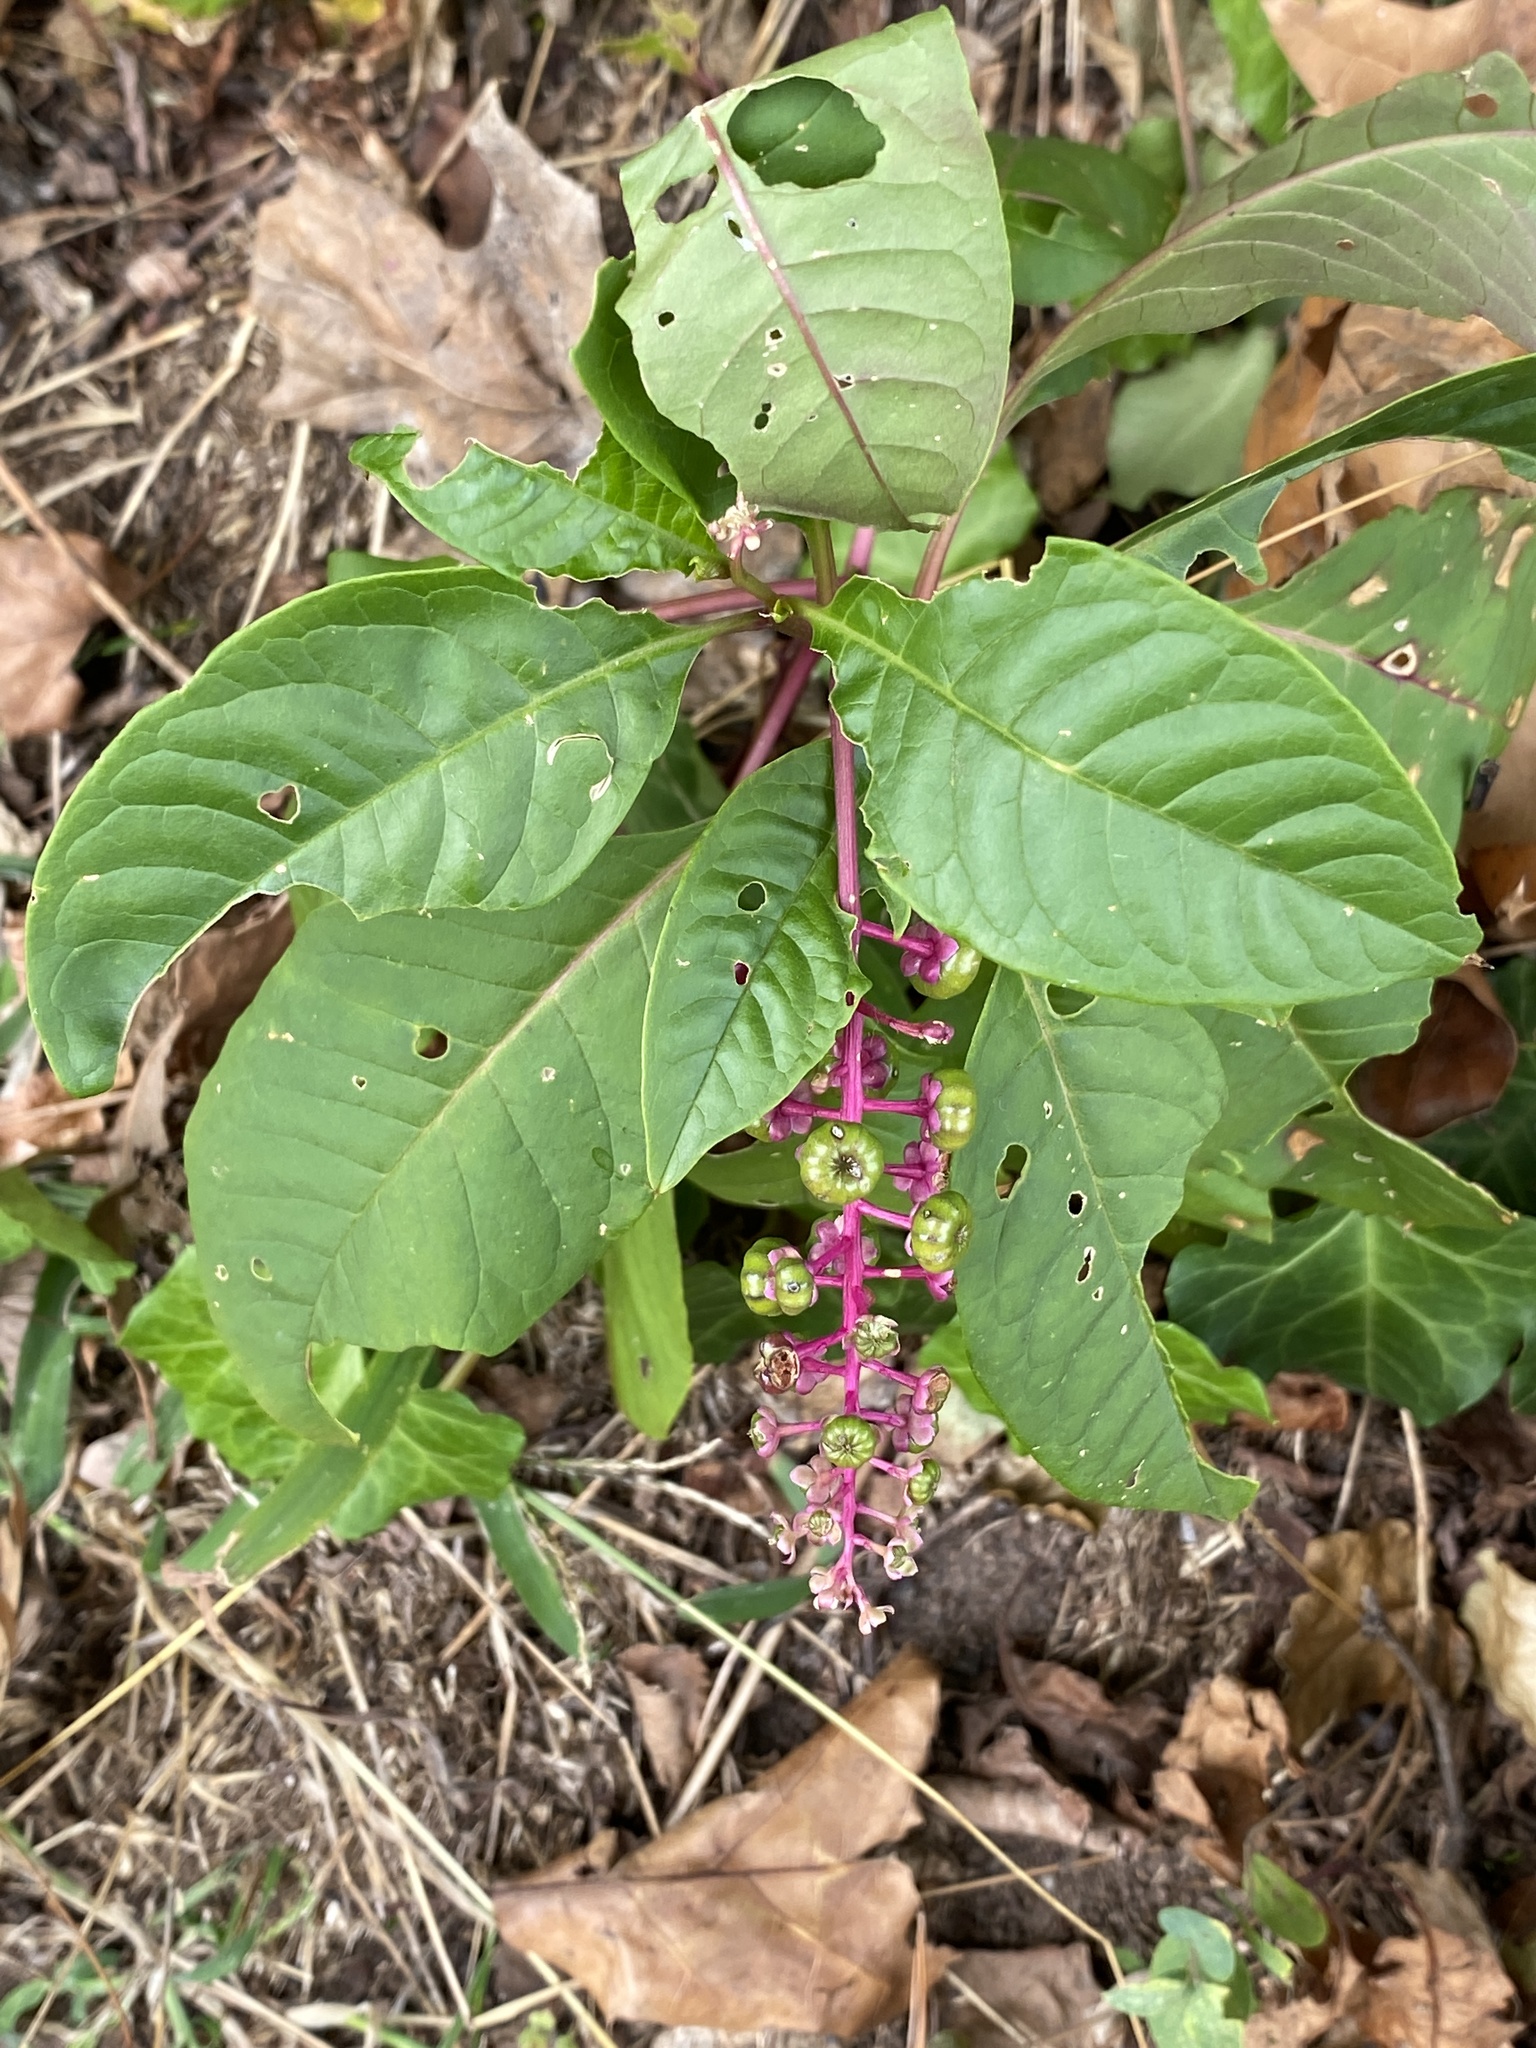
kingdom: Plantae
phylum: Tracheophyta
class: Magnoliopsida
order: Caryophyllales
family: Phytolaccaceae
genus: Phytolacca
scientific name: Phytolacca americana
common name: American pokeweed
